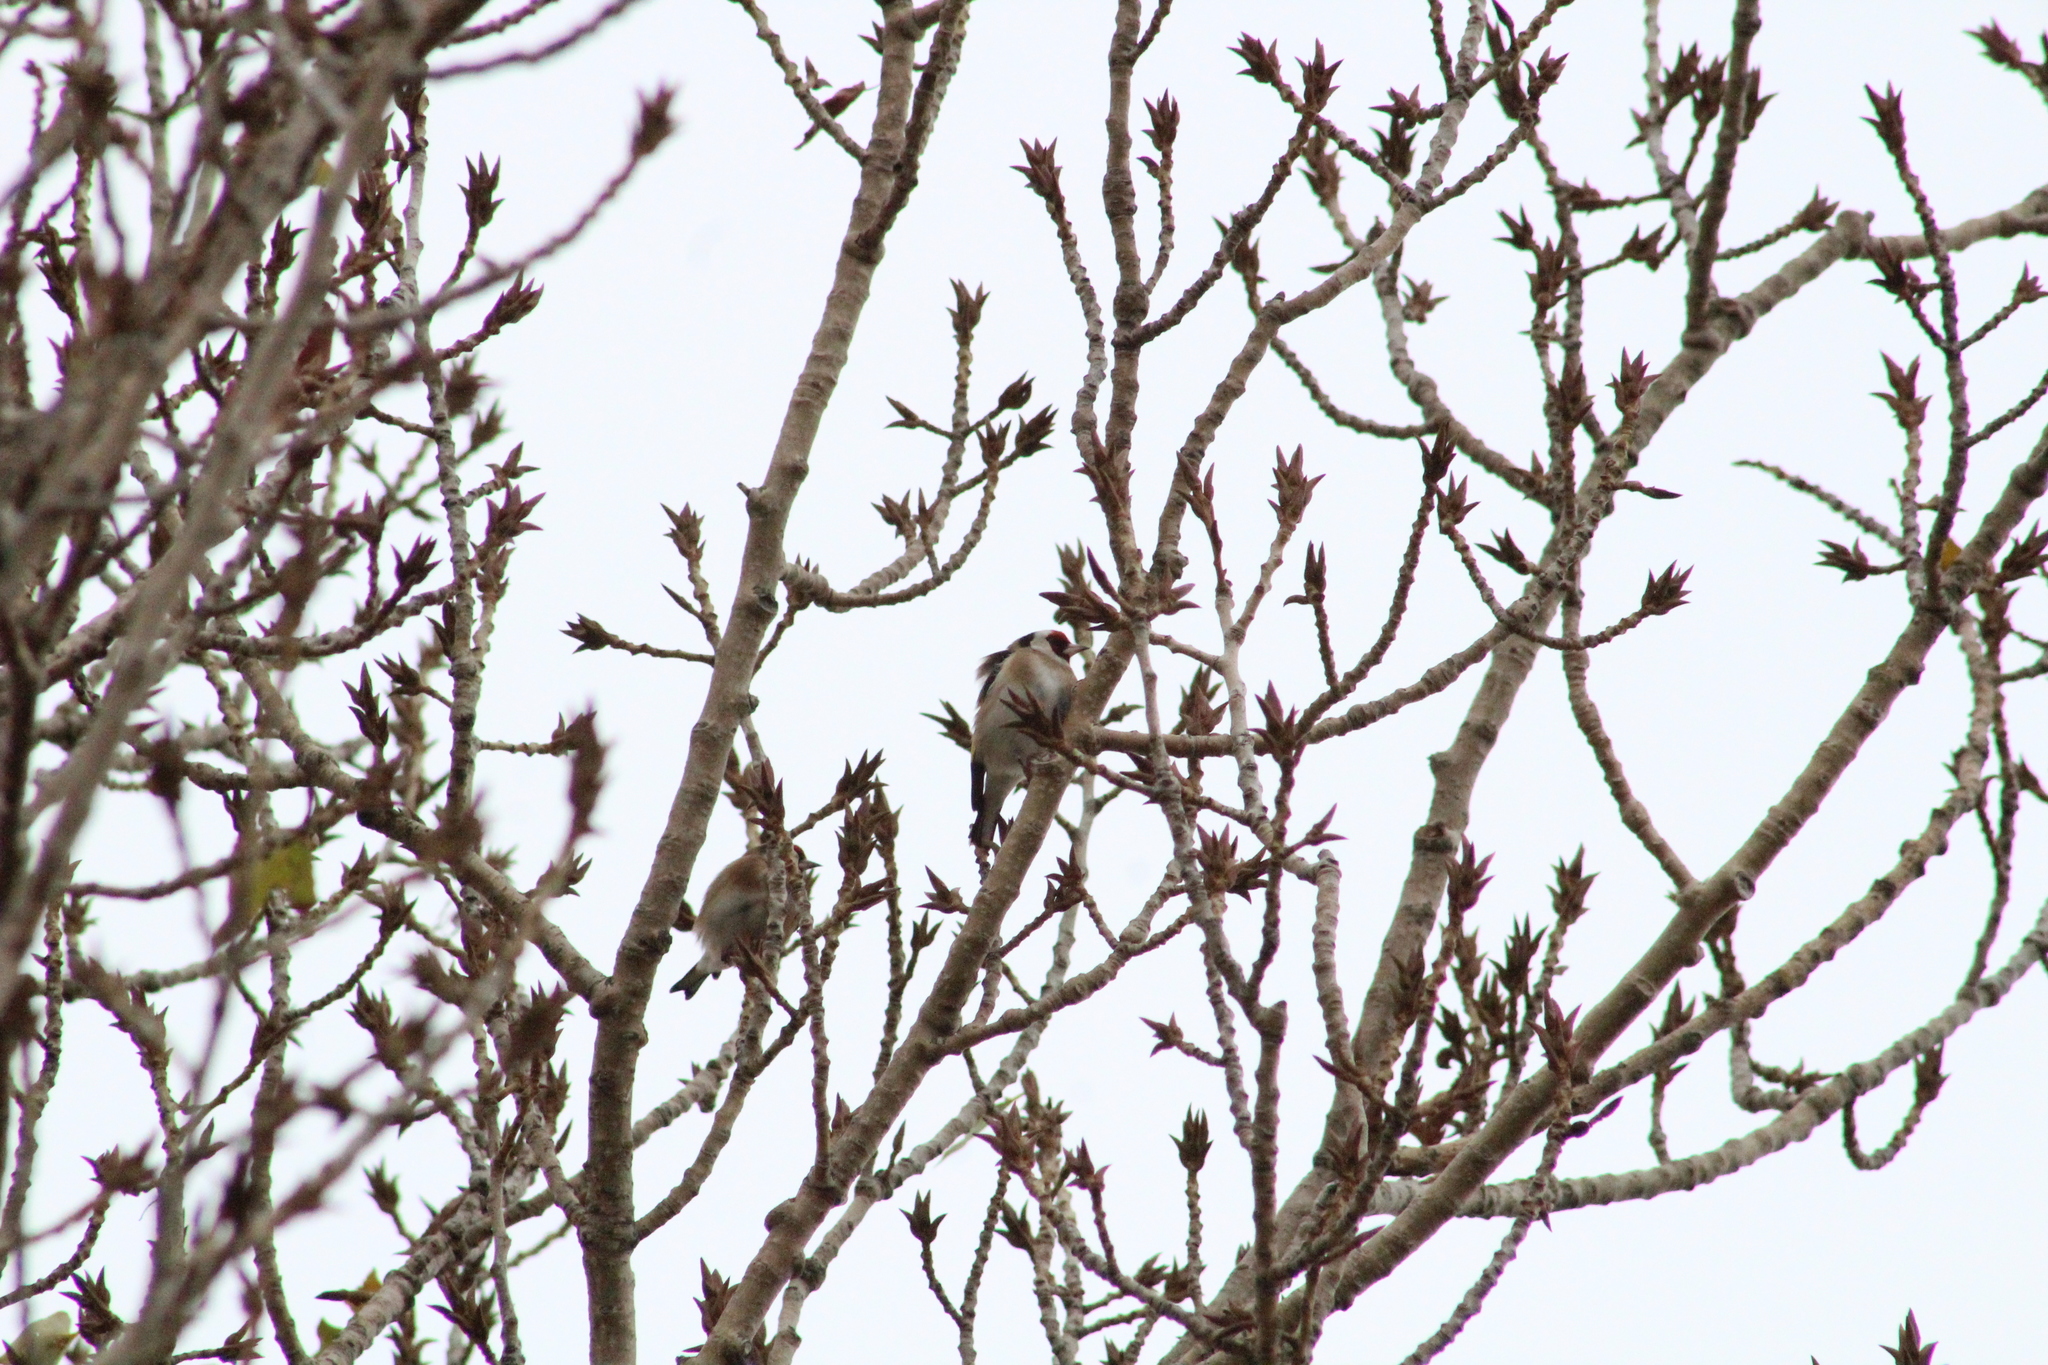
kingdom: Animalia
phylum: Chordata
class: Aves
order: Passeriformes
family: Fringillidae
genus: Carduelis
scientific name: Carduelis carduelis
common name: European goldfinch
